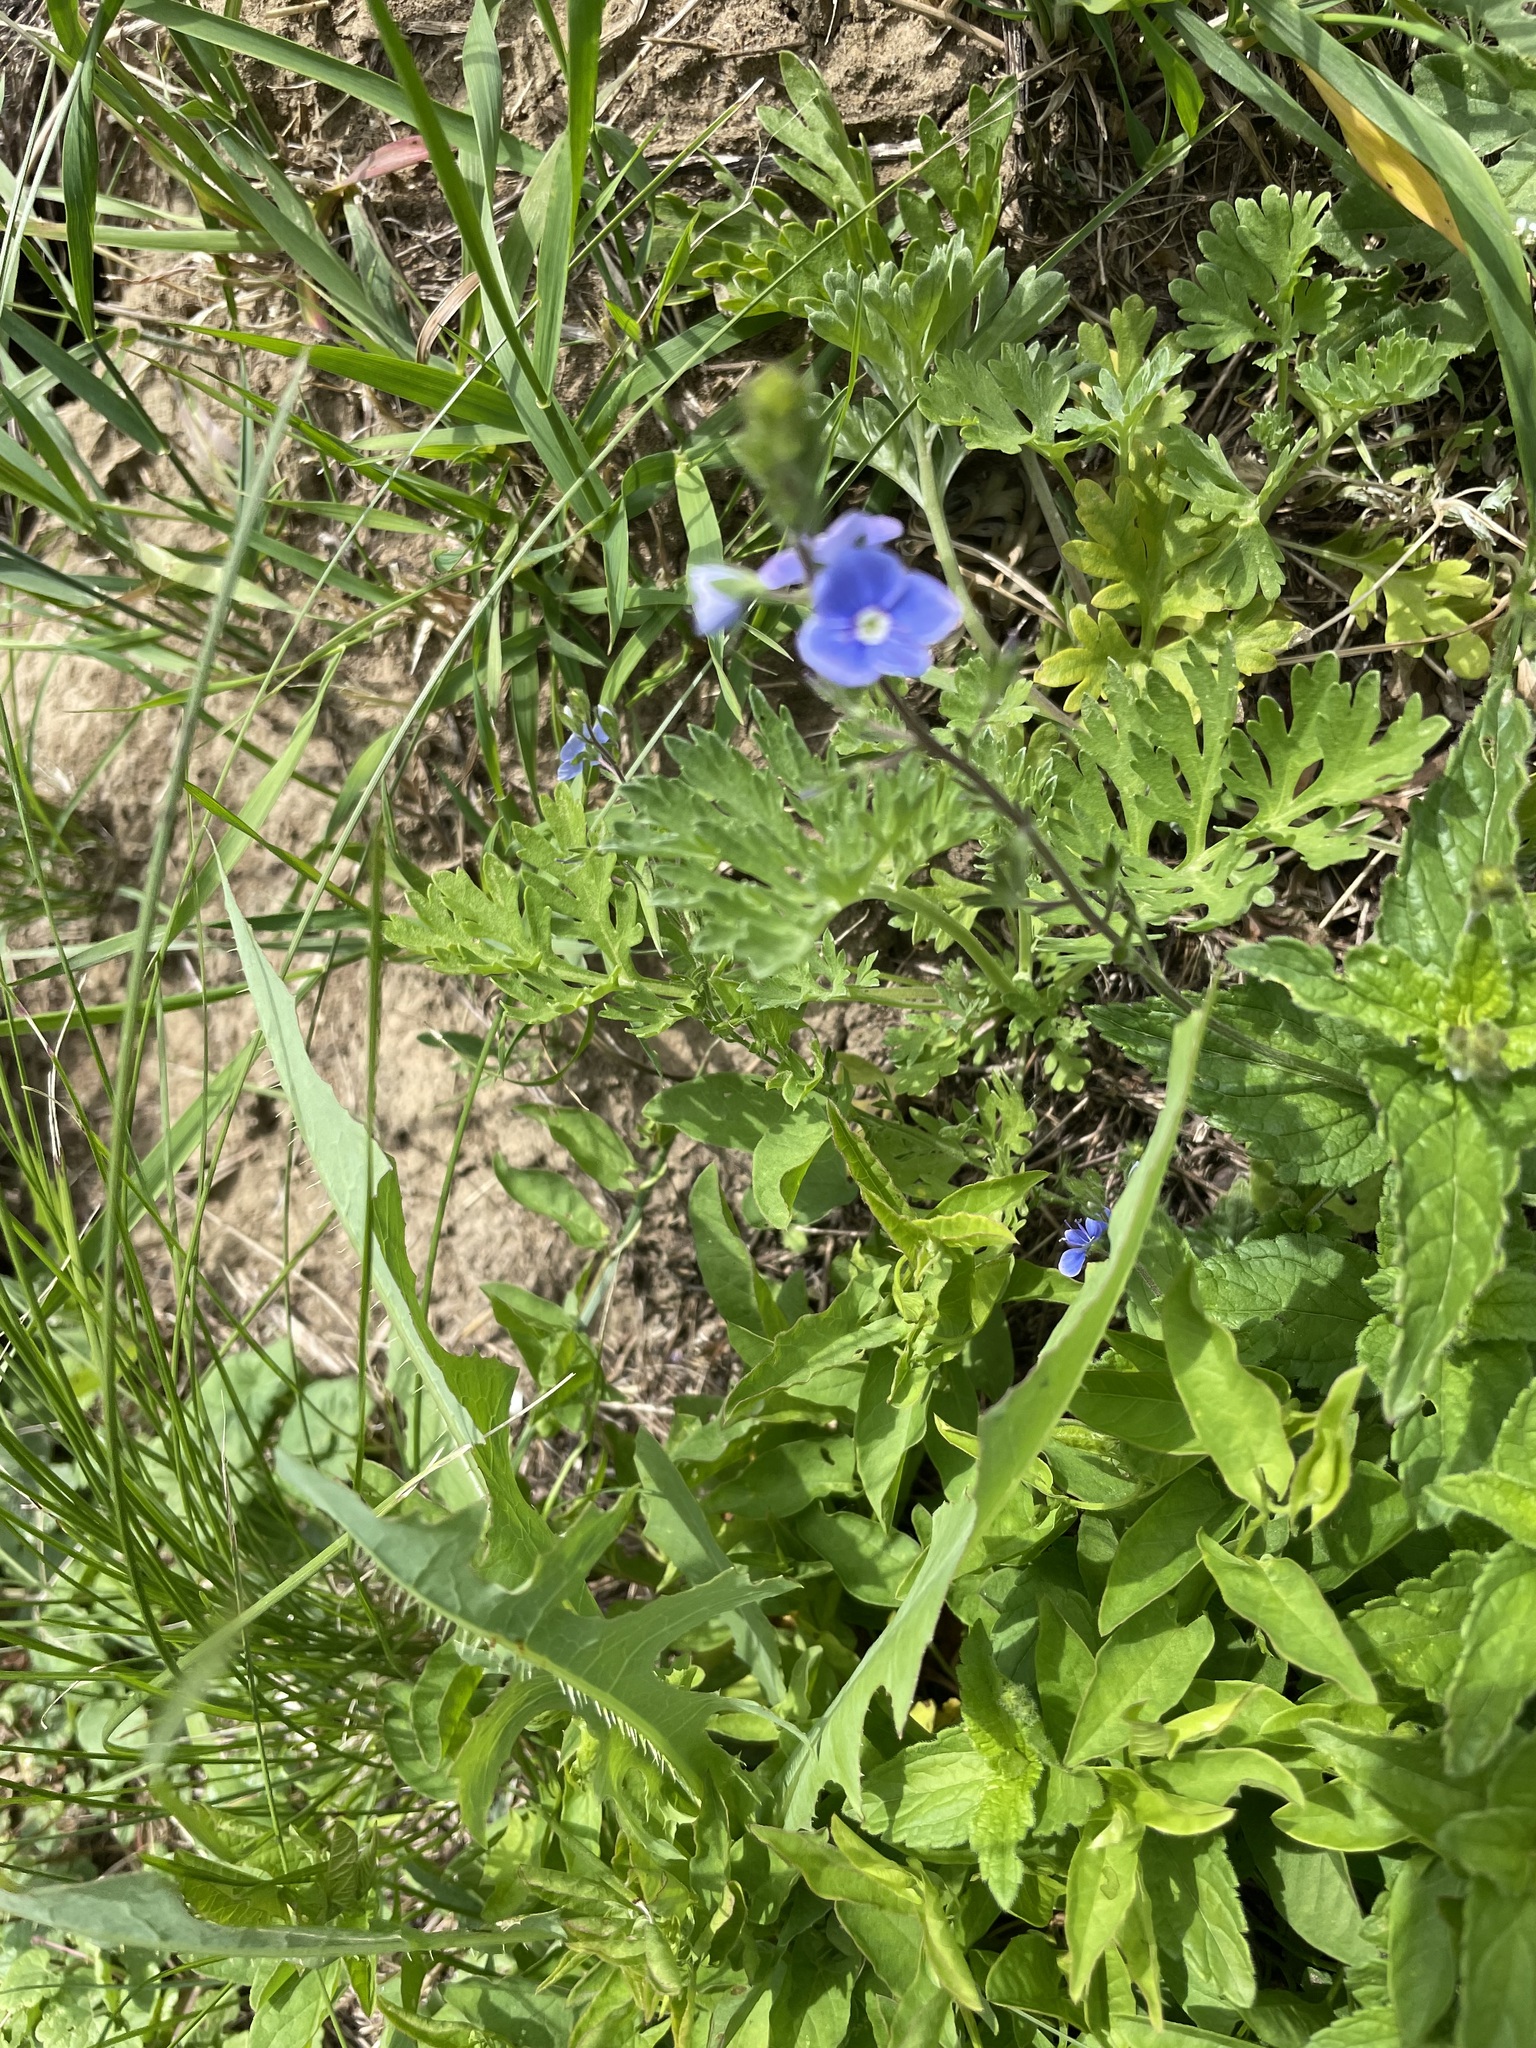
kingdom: Plantae
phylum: Tracheophyta
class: Magnoliopsida
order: Lamiales
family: Plantaginaceae
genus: Veronica
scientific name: Veronica chamaedrys
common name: Germander speedwell
